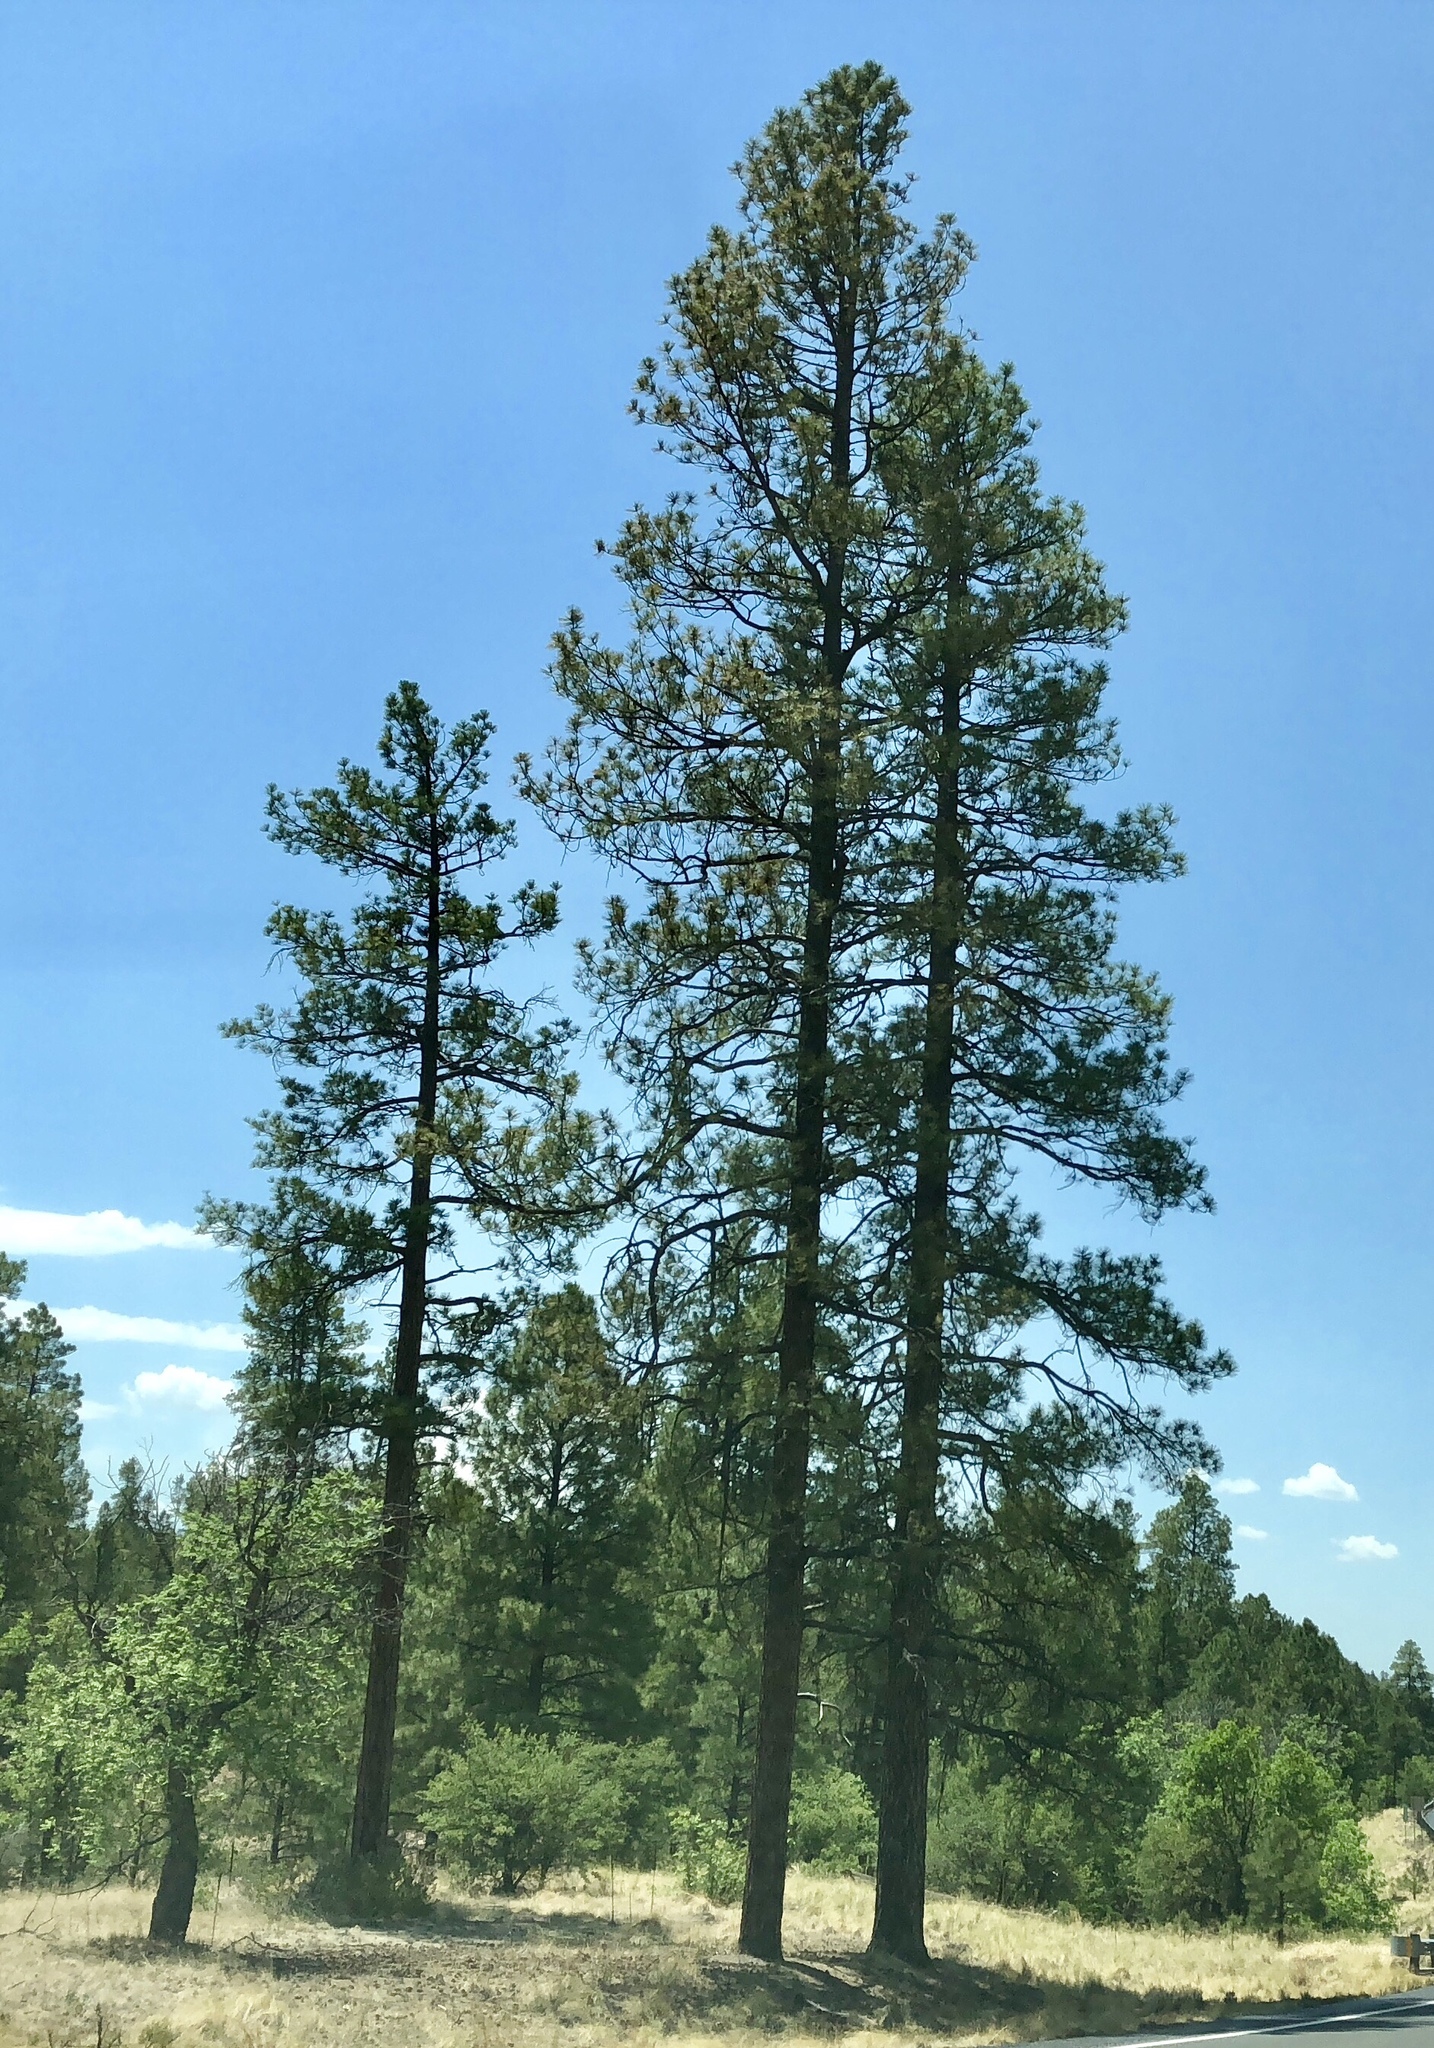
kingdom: Plantae
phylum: Tracheophyta
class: Pinopsida
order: Pinales
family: Pinaceae
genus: Pinus
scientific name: Pinus ponderosa
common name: Western yellow-pine
